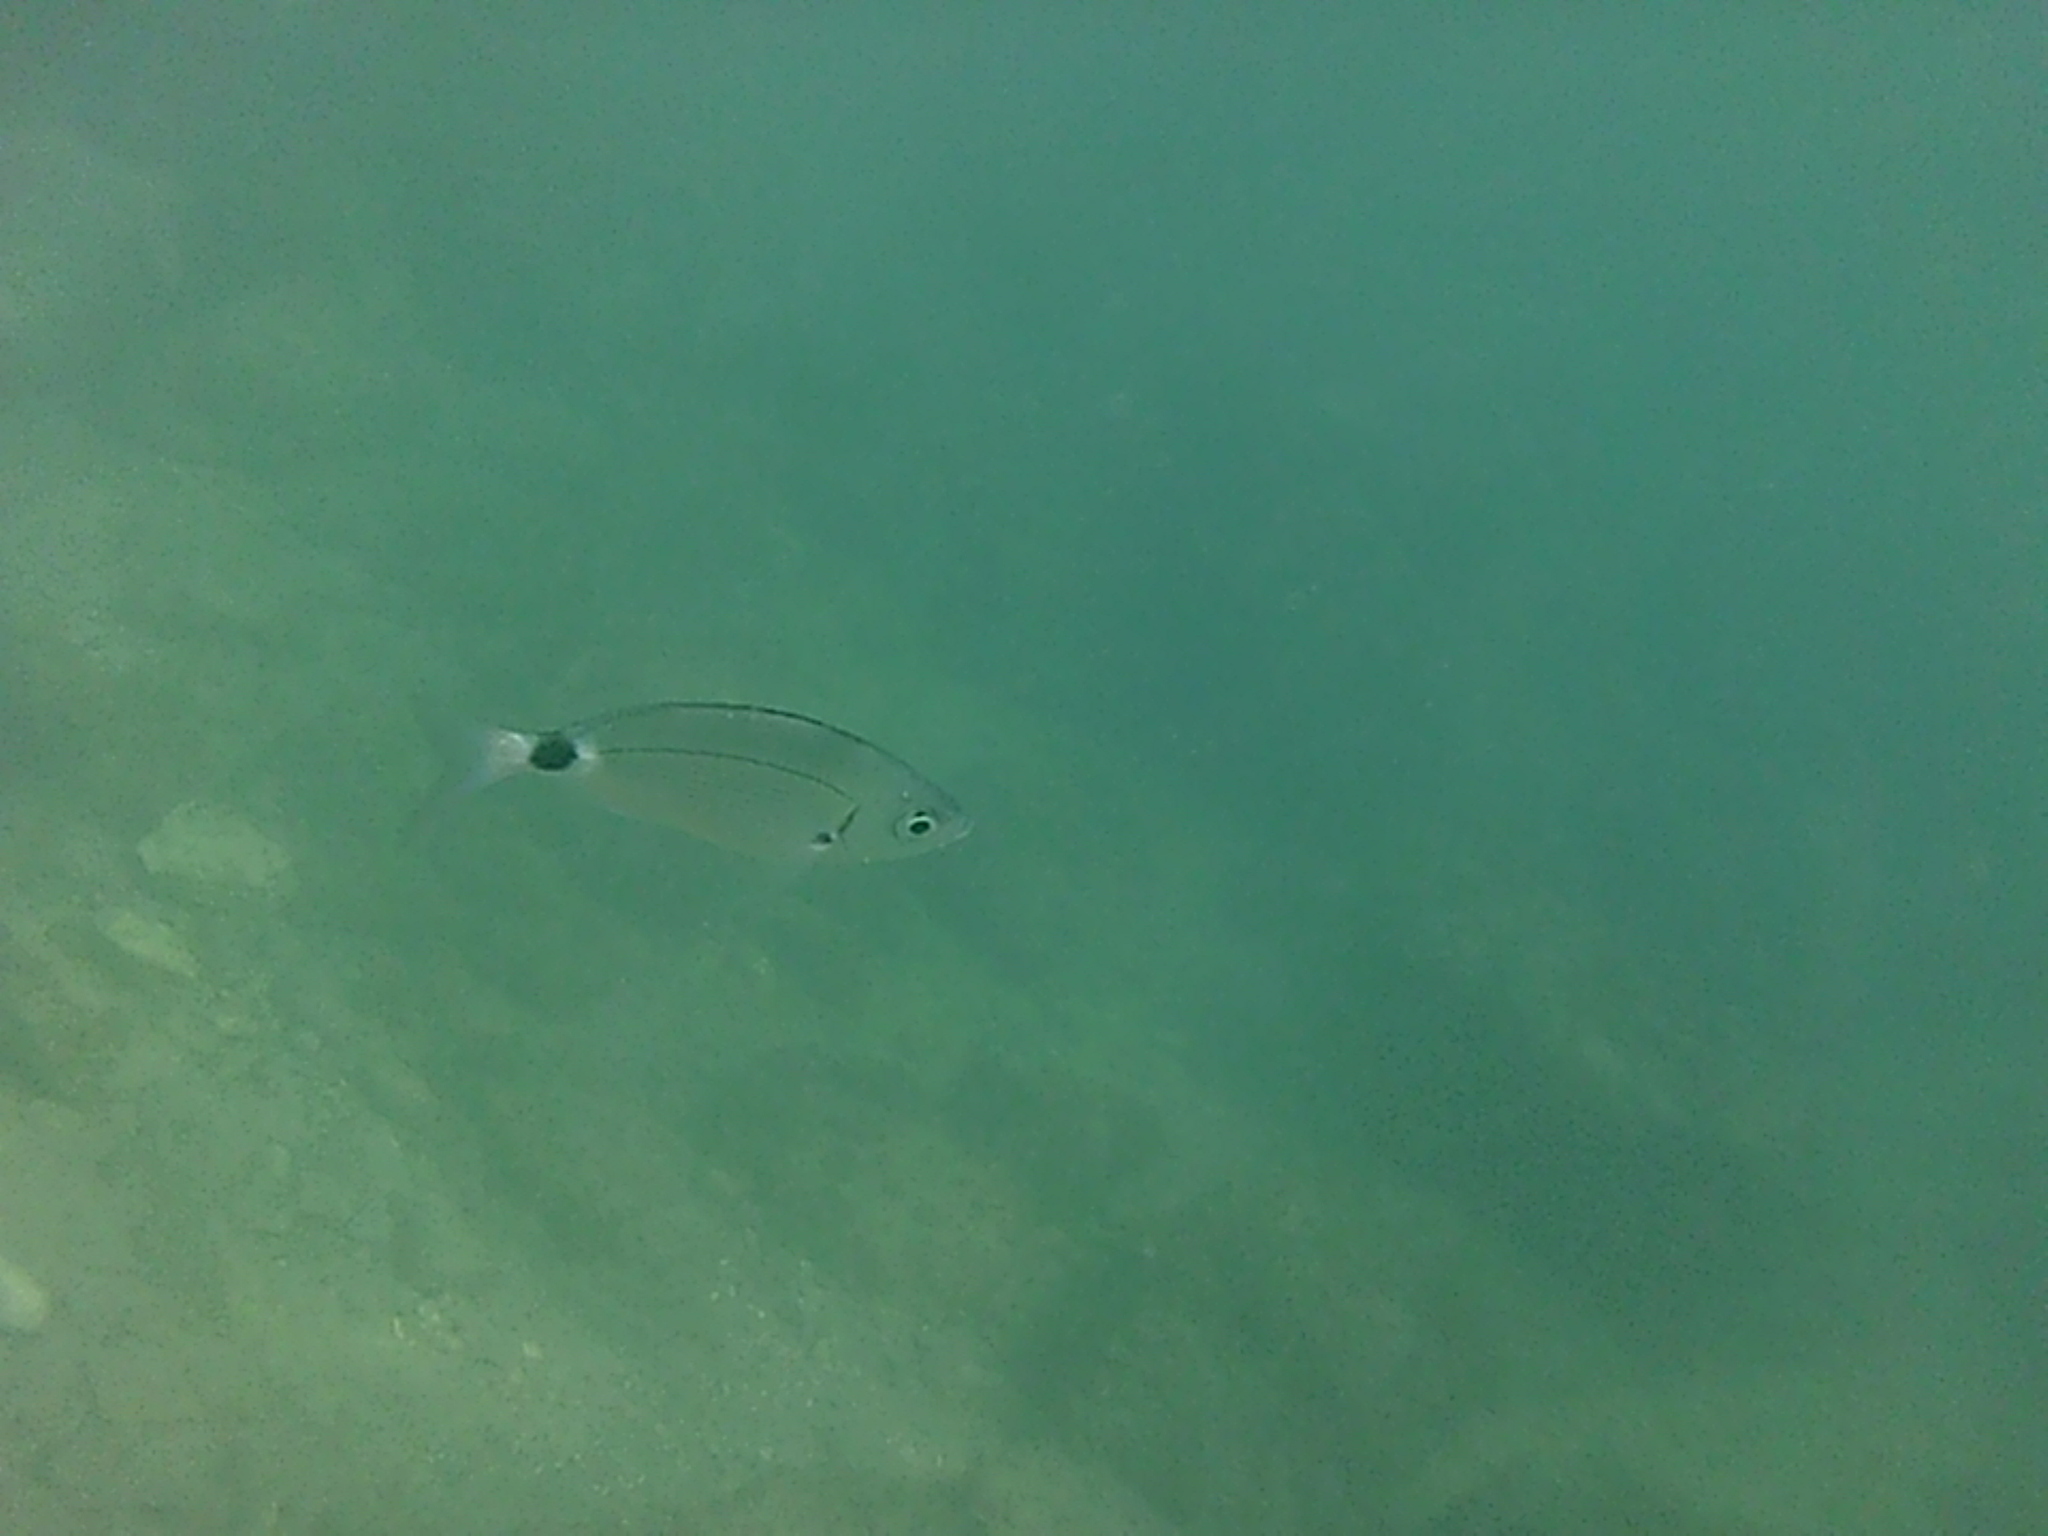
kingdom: Animalia
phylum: Chordata
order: Perciformes
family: Sparidae
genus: Oblada
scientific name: Oblada melanura
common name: Saddled seabream
